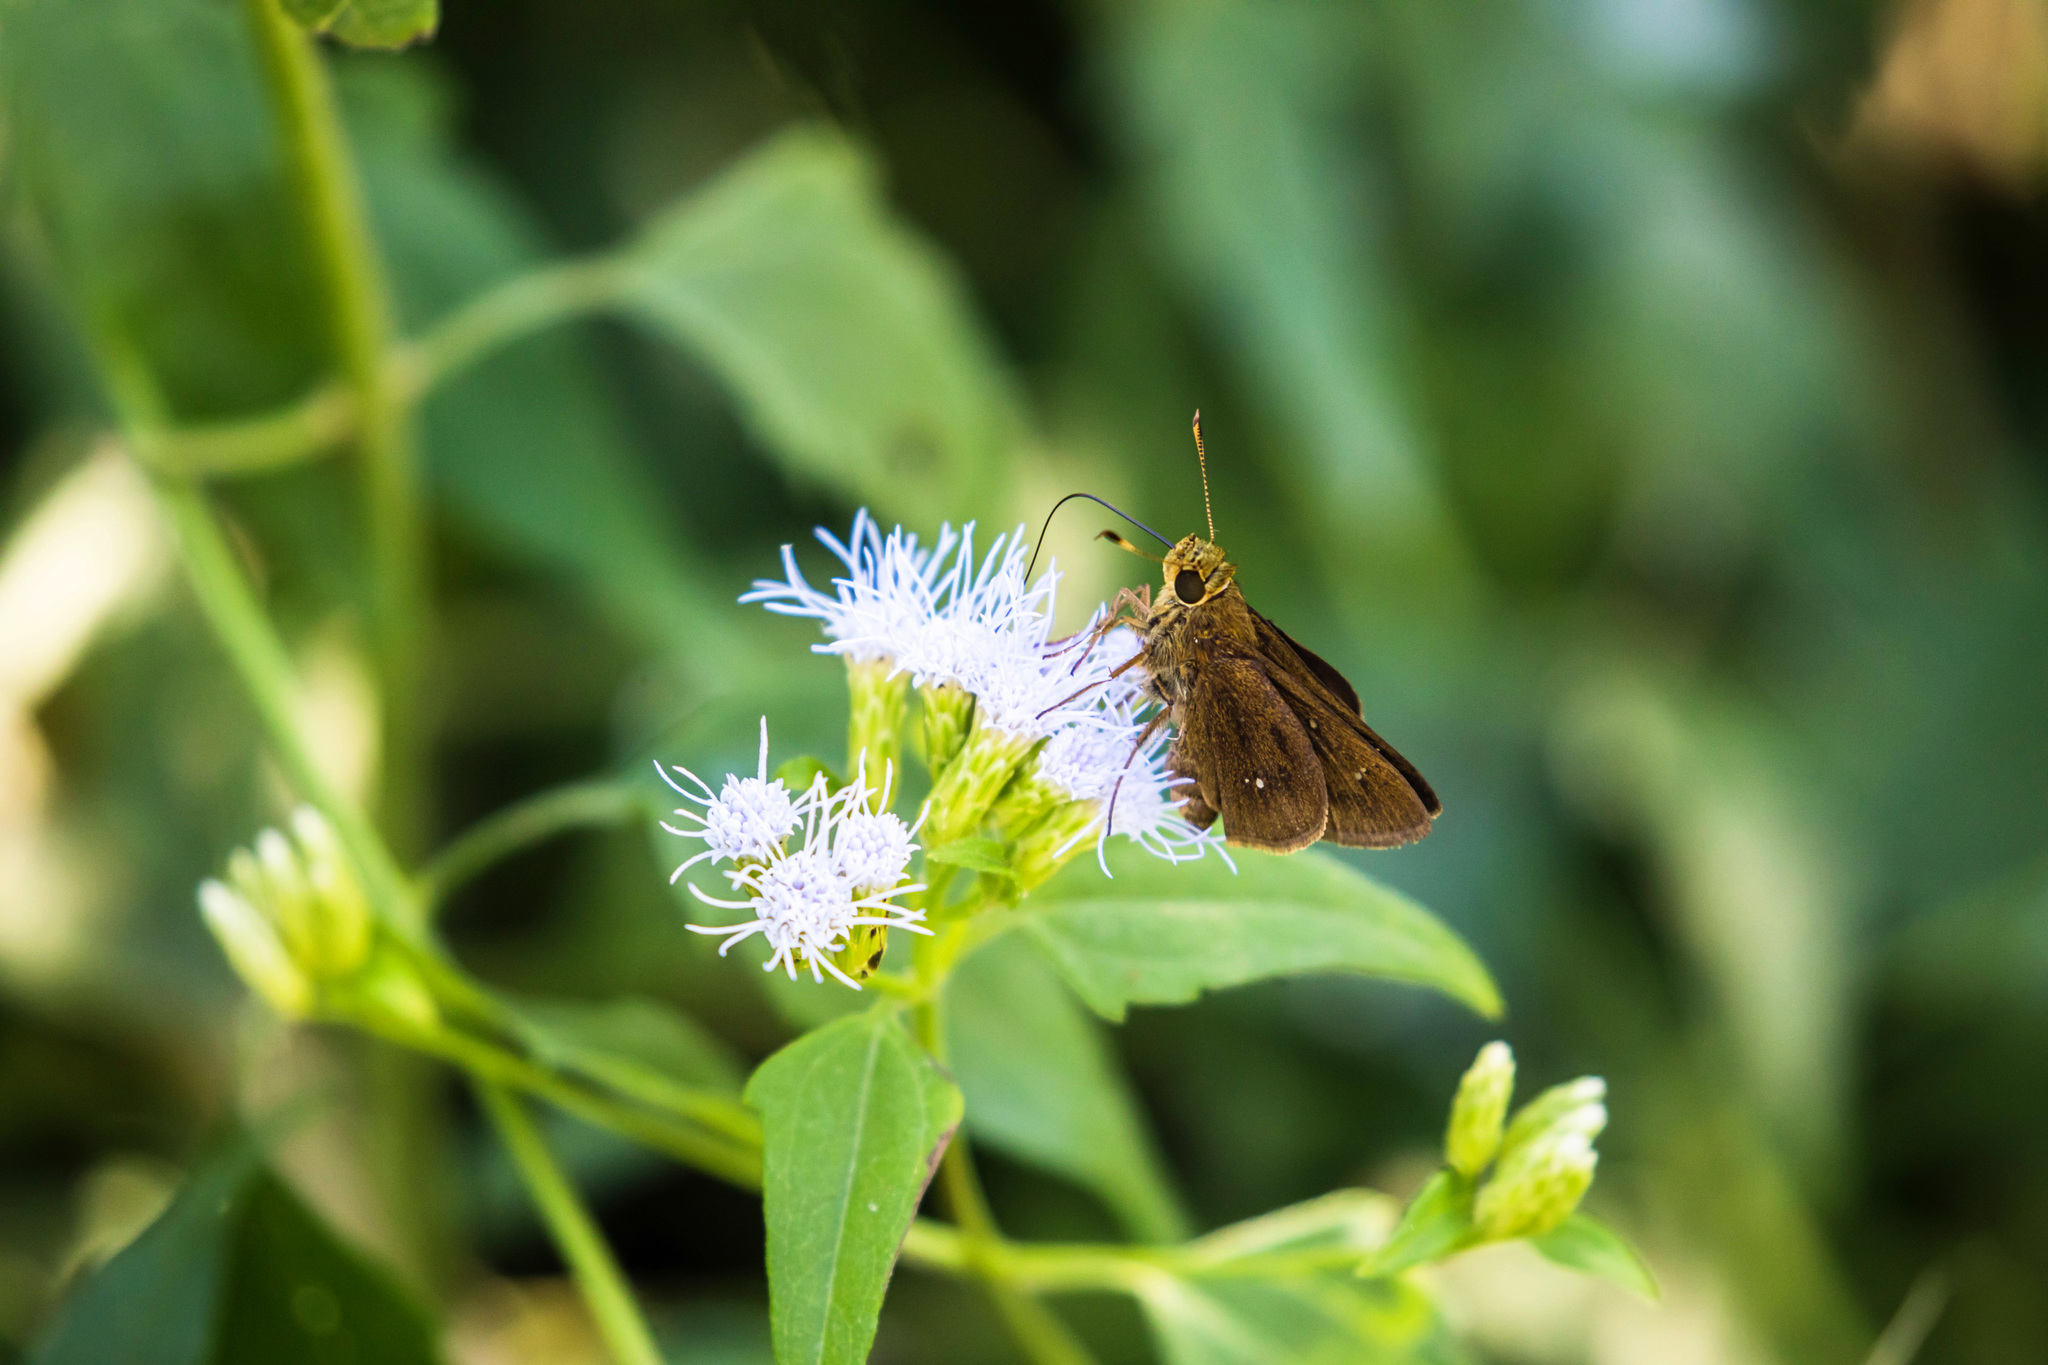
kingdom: Animalia
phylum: Arthropoda
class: Insecta
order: Lepidoptera
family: Hesperiidae
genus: Decinea
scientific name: Decinea percosius
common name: Double-dotted skipper
